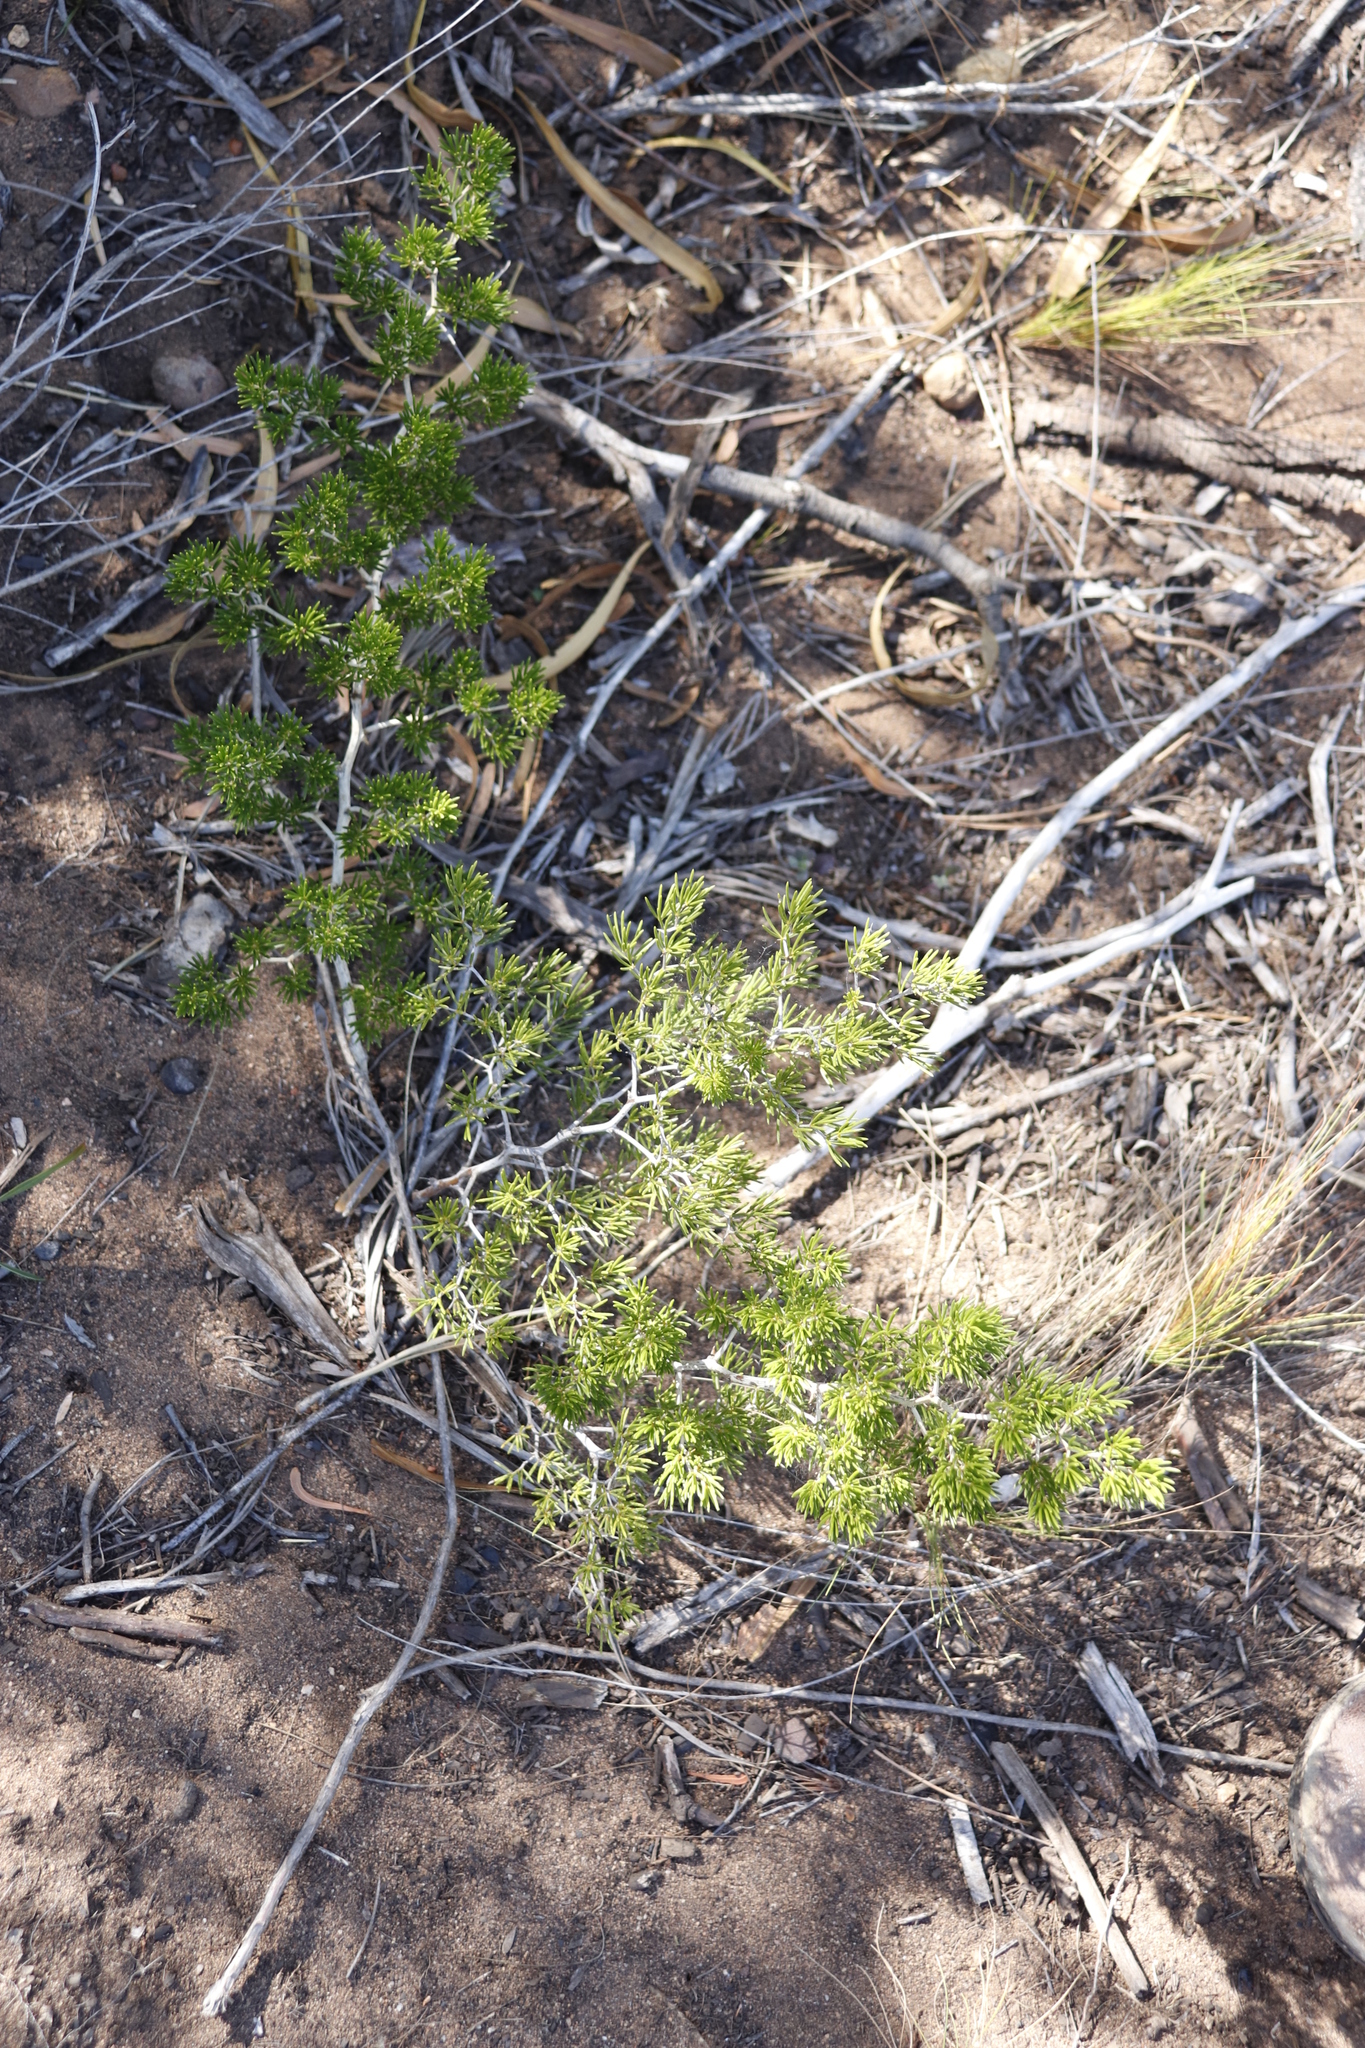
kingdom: Plantae
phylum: Tracheophyta
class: Liliopsida
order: Asparagales
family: Asparagaceae
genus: Asparagus
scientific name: Asparagus lignosus
